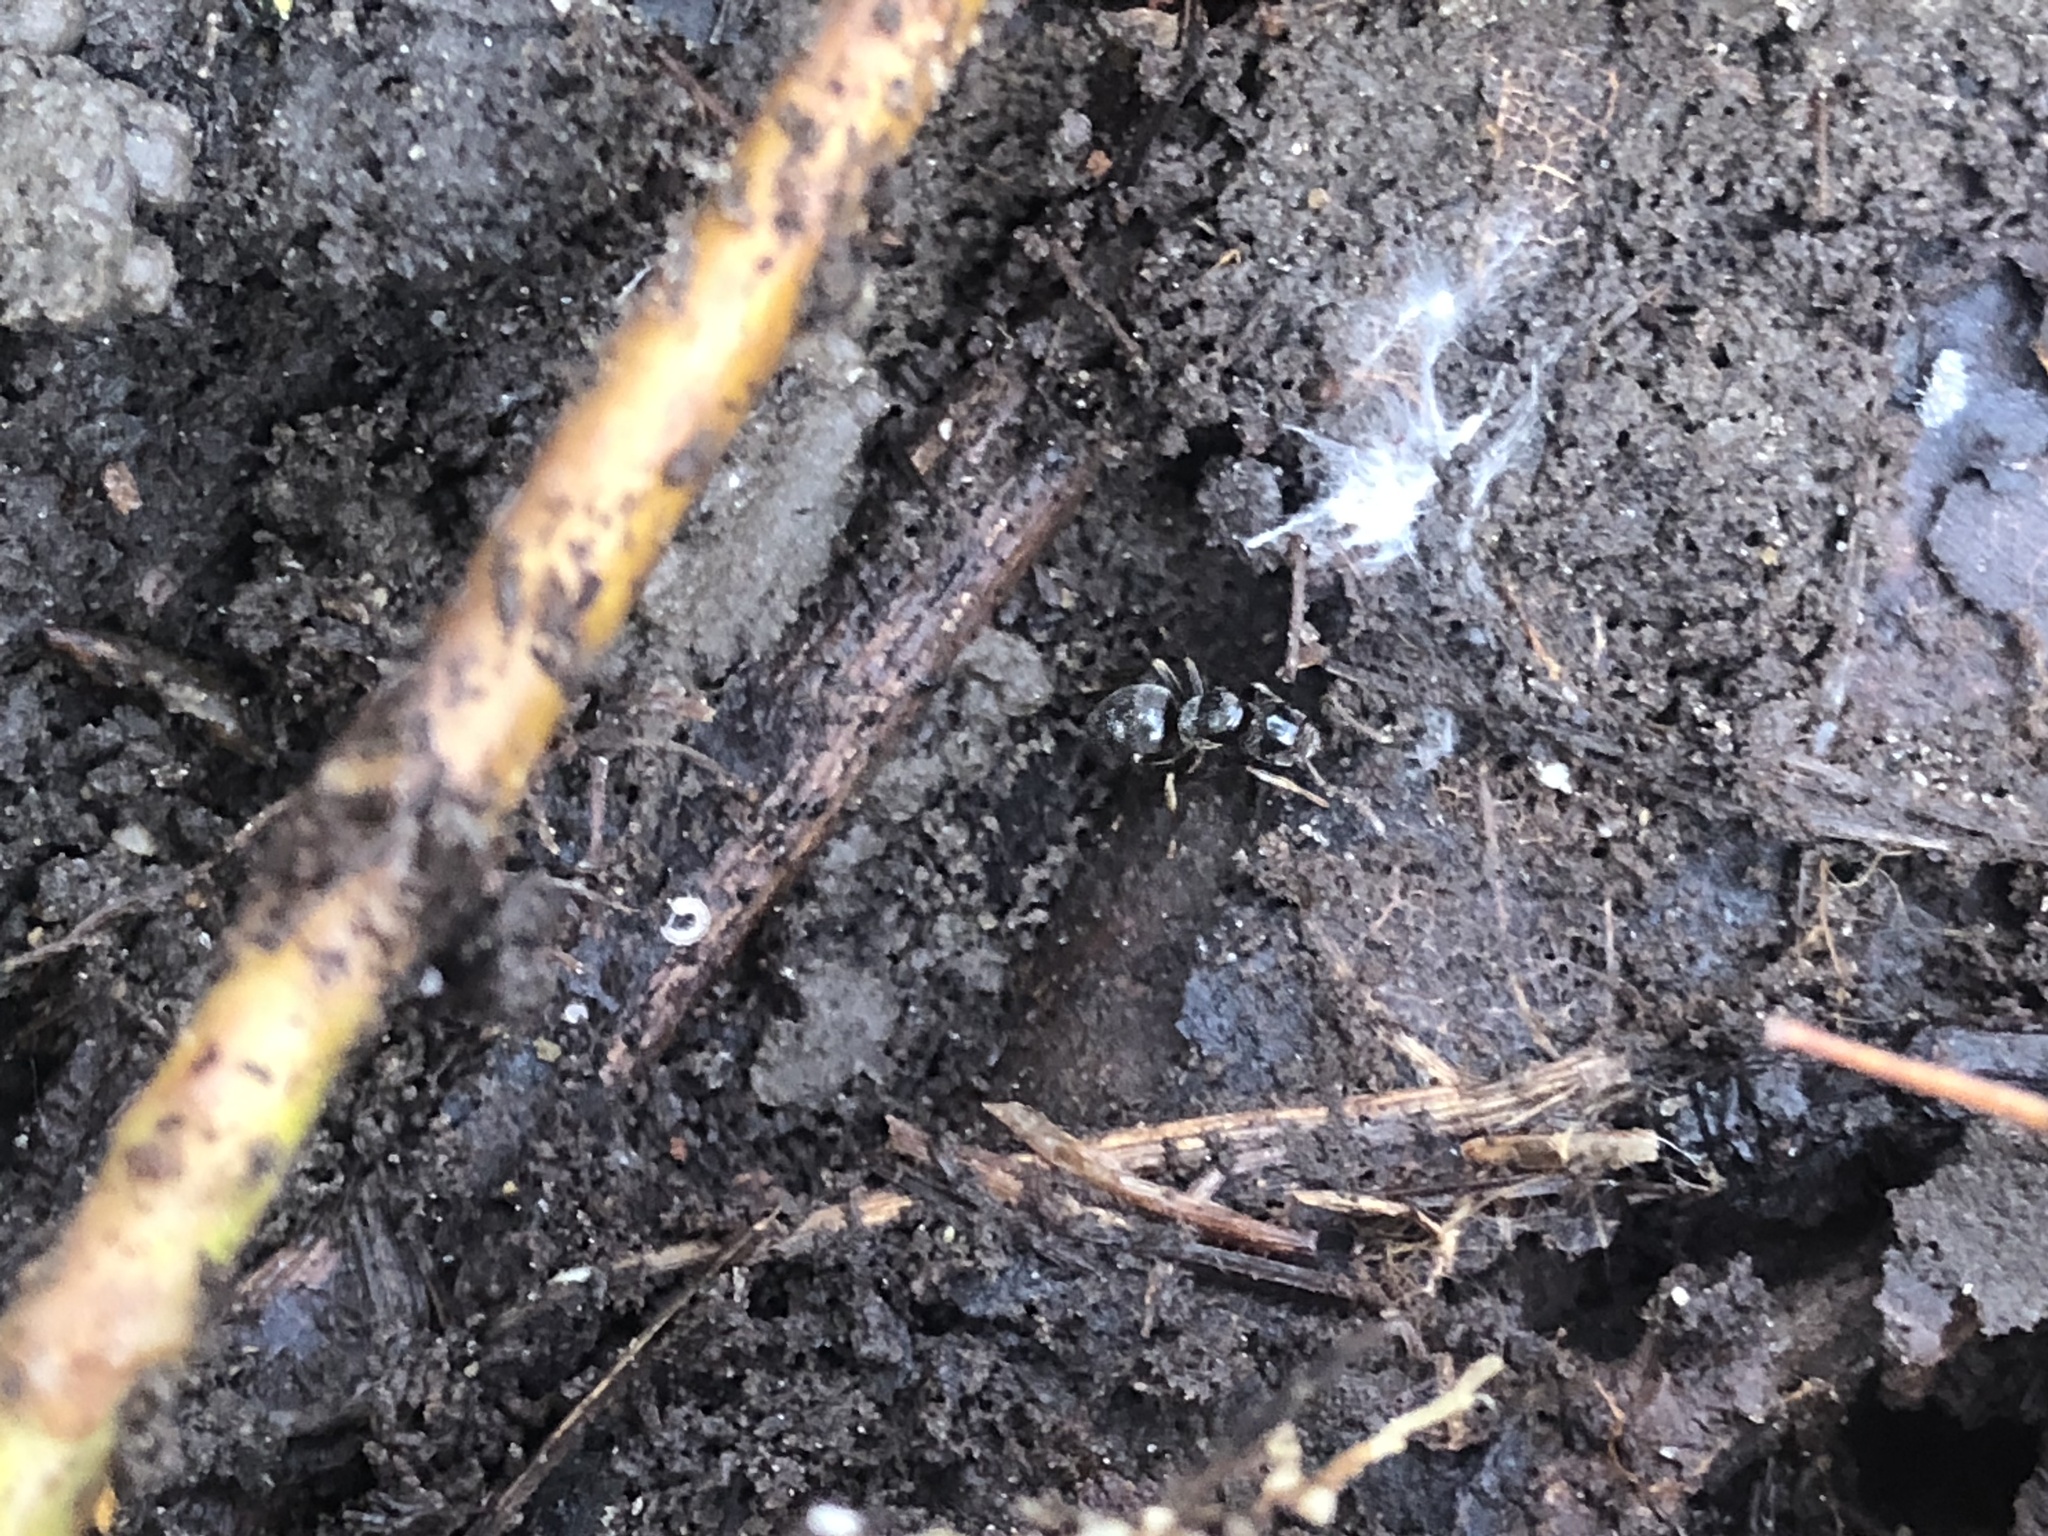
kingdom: Animalia
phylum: Arthropoda
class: Insecta
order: Hymenoptera
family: Formicidae
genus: Lasius
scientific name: Lasius aphidicola
